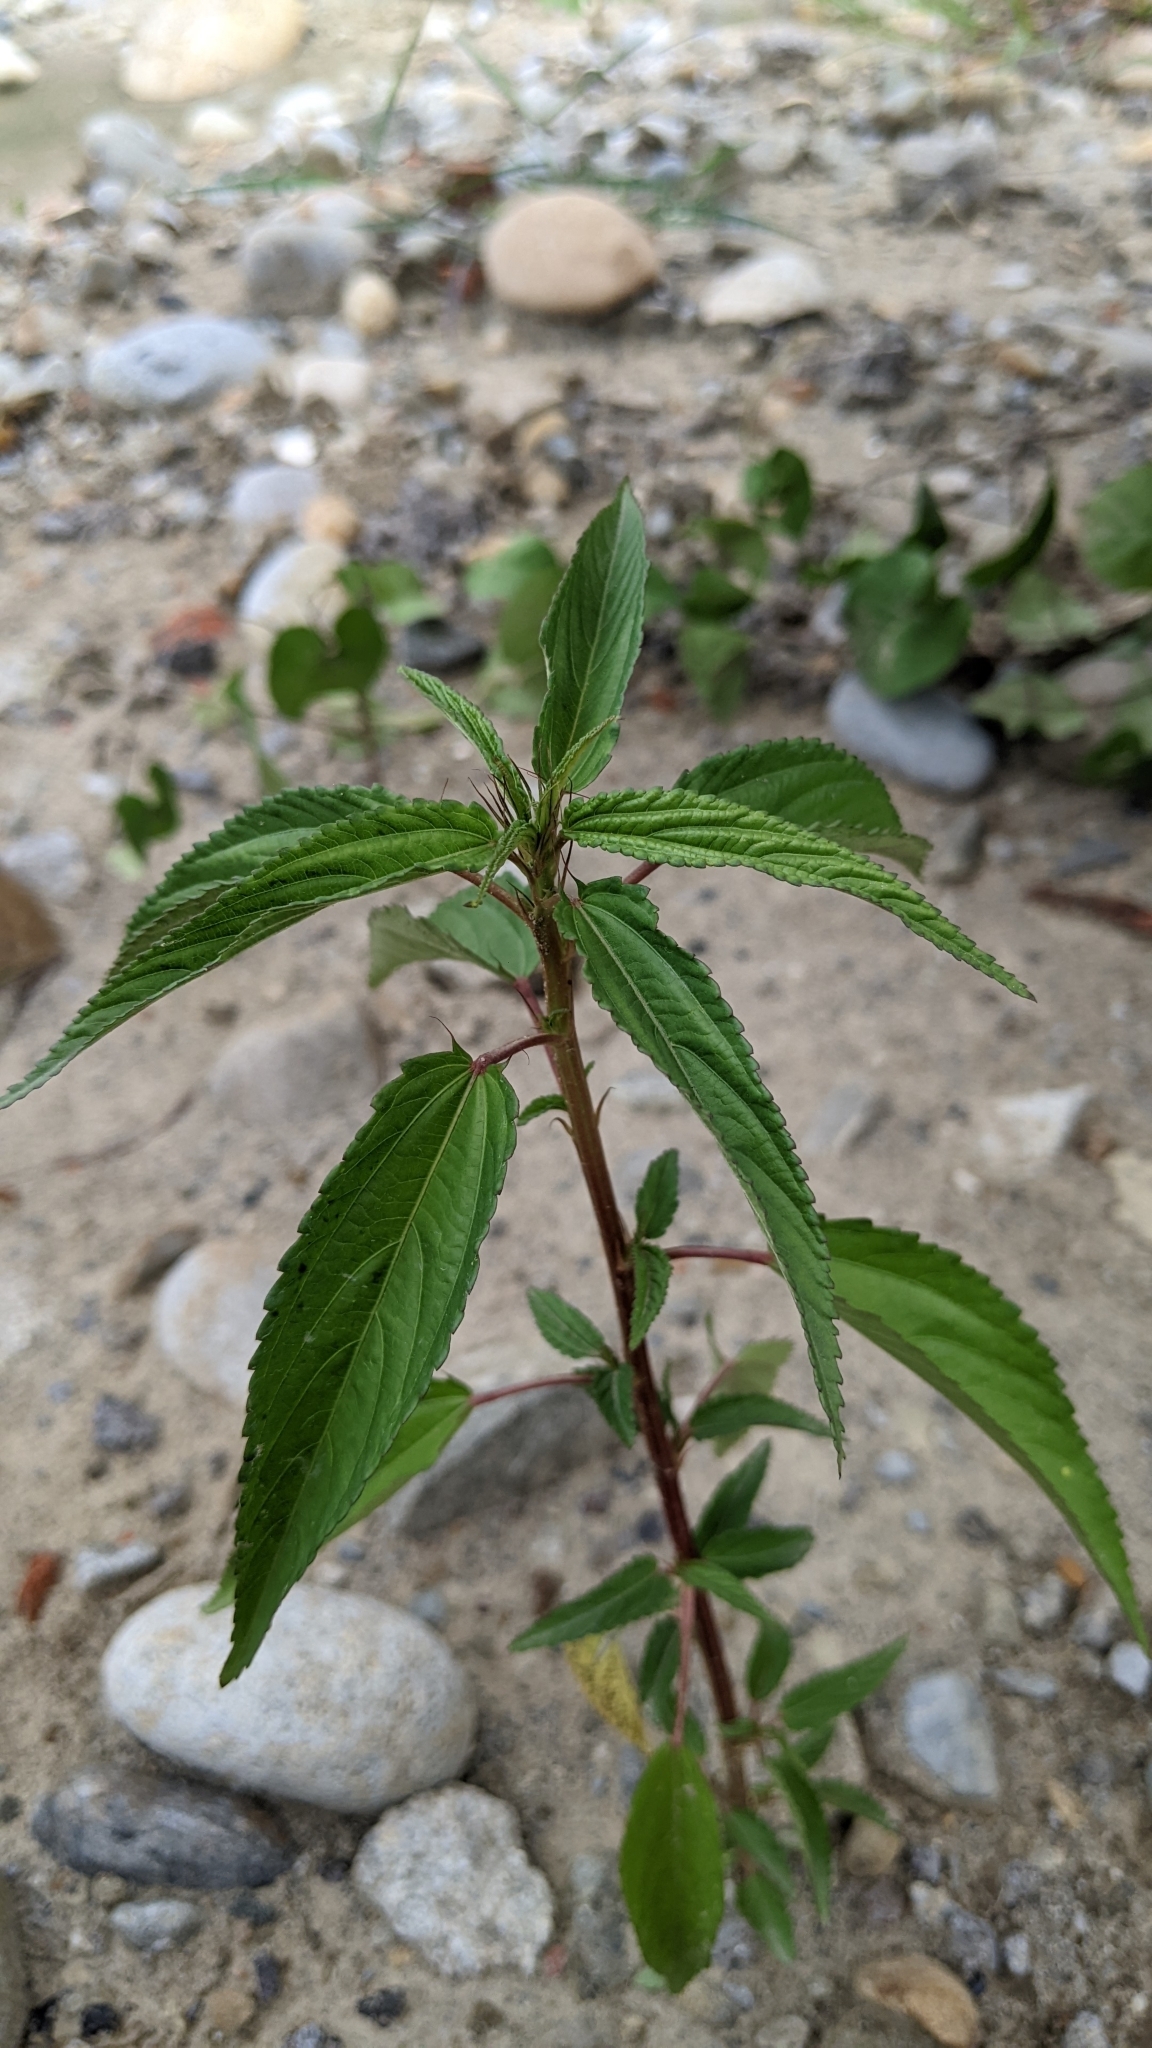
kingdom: Plantae
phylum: Tracheophyta
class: Magnoliopsida
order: Malvales
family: Malvaceae
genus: Corchorus
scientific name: Corchorus olitorius
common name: Tossa jute
